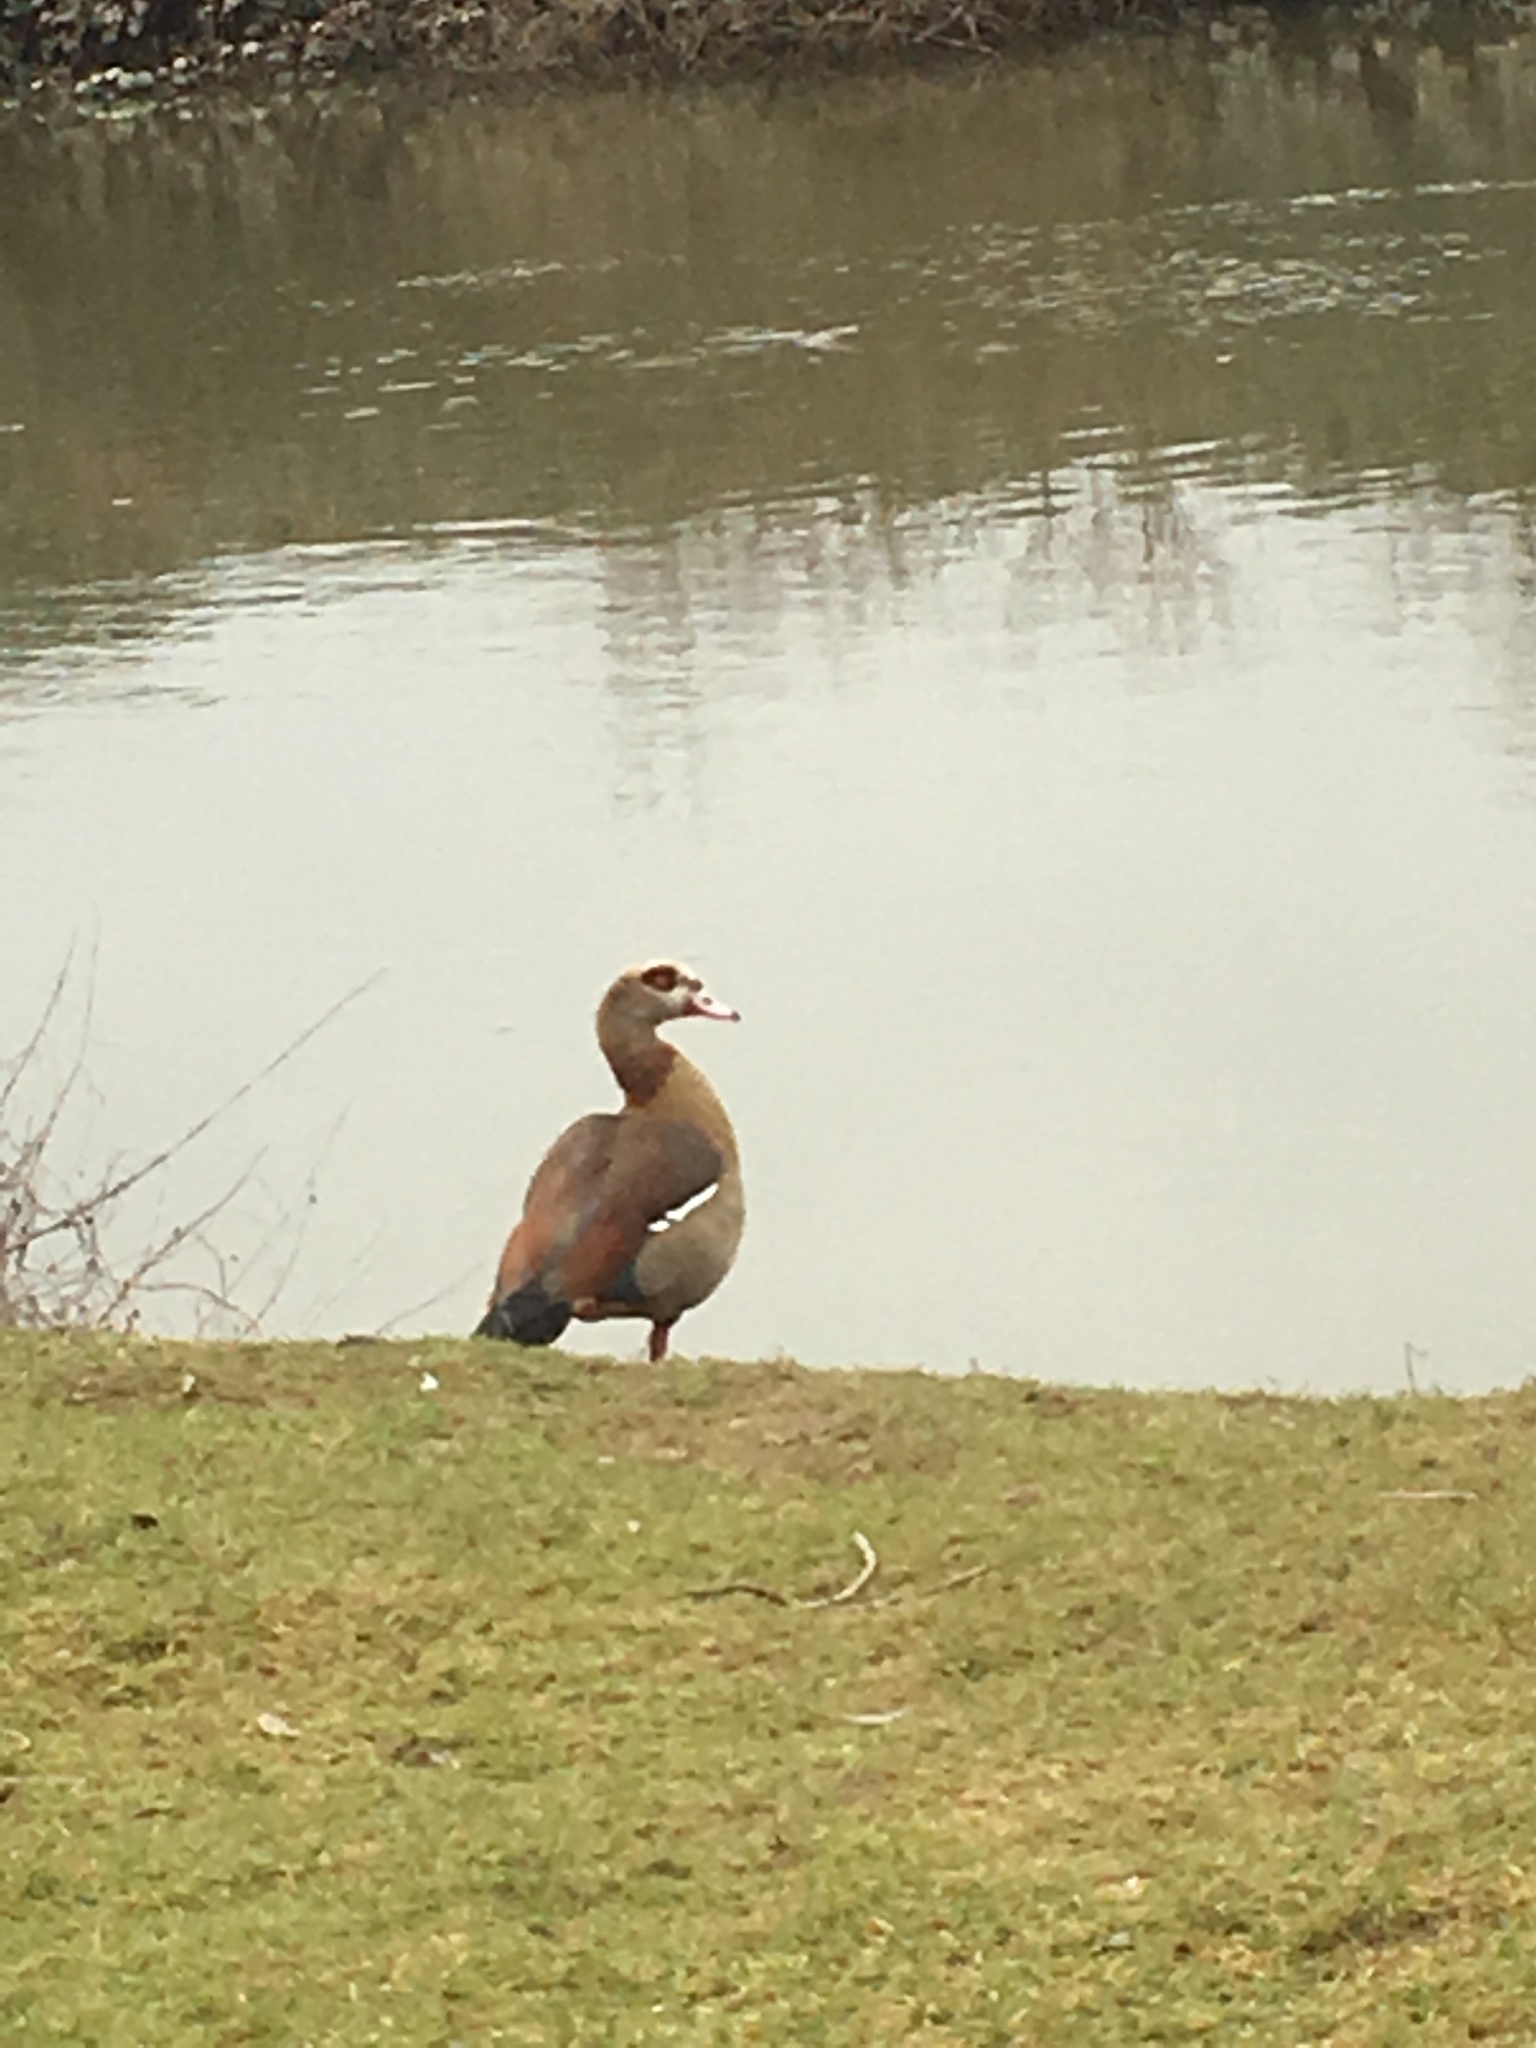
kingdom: Animalia
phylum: Chordata
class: Aves
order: Anseriformes
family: Anatidae
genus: Alopochen
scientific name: Alopochen aegyptiaca
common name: Egyptian goose
